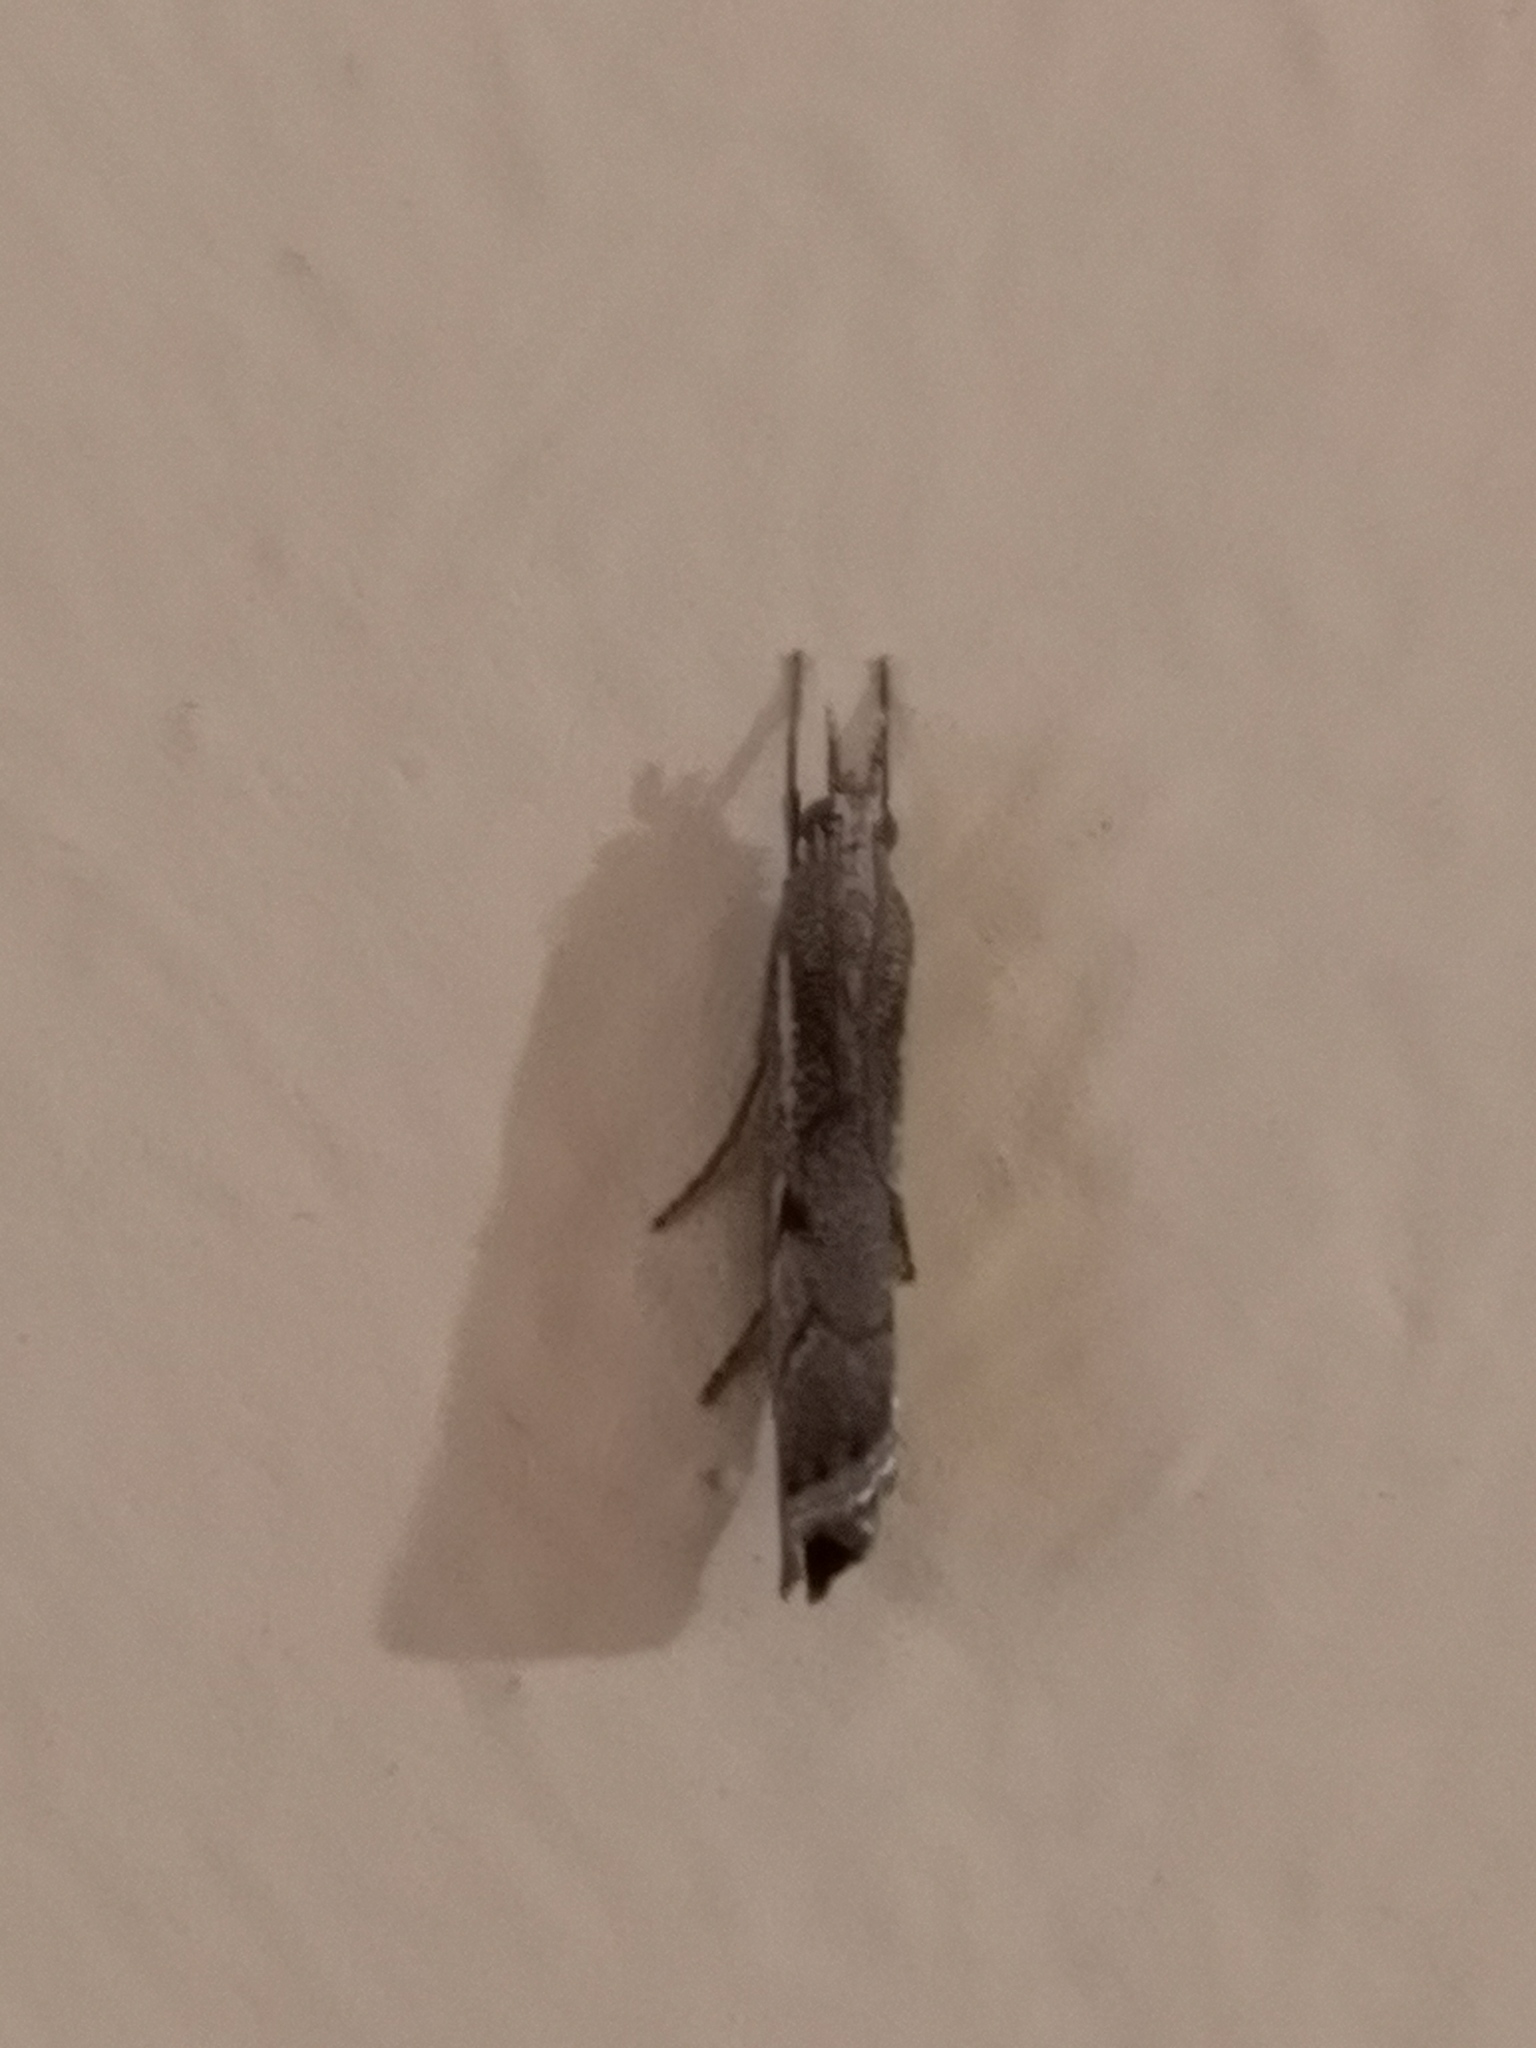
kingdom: Animalia
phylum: Arthropoda
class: Insecta
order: Lepidoptera
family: Crambidae
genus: Agriphila
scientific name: Agriphila geniculea
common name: Elbow-stripe grass-veneer
